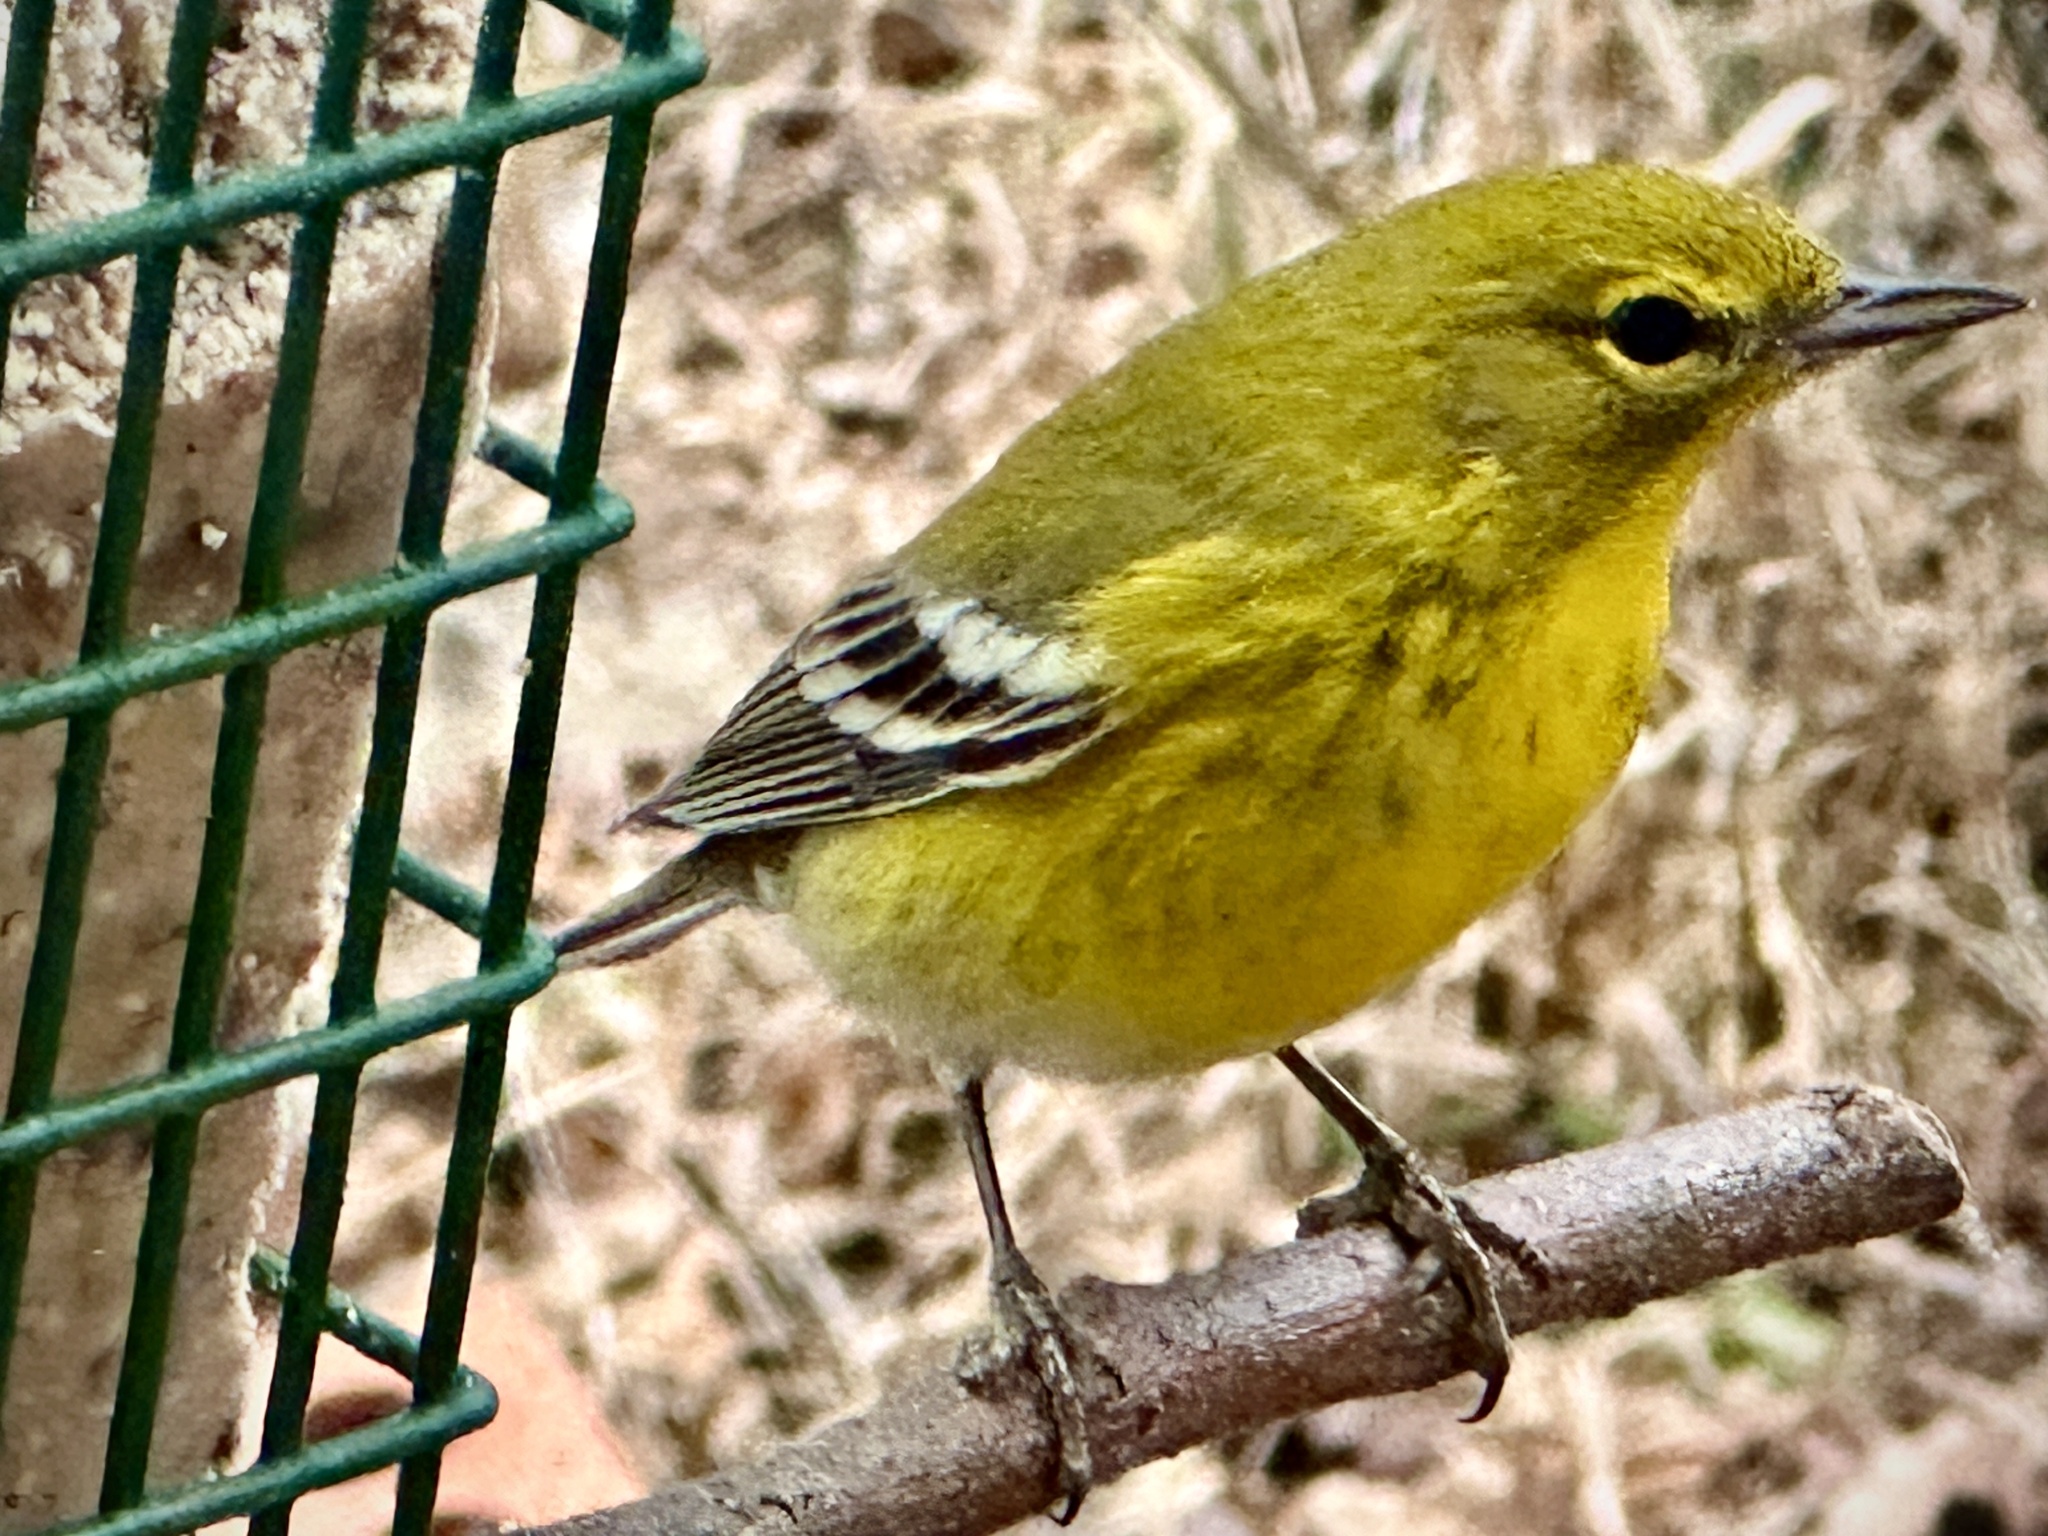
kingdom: Animalia
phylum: Chordata
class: Aves
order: Passeriformes
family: Parulidae
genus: Setophaga
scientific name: Setophaga pinus
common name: Pine warbler
